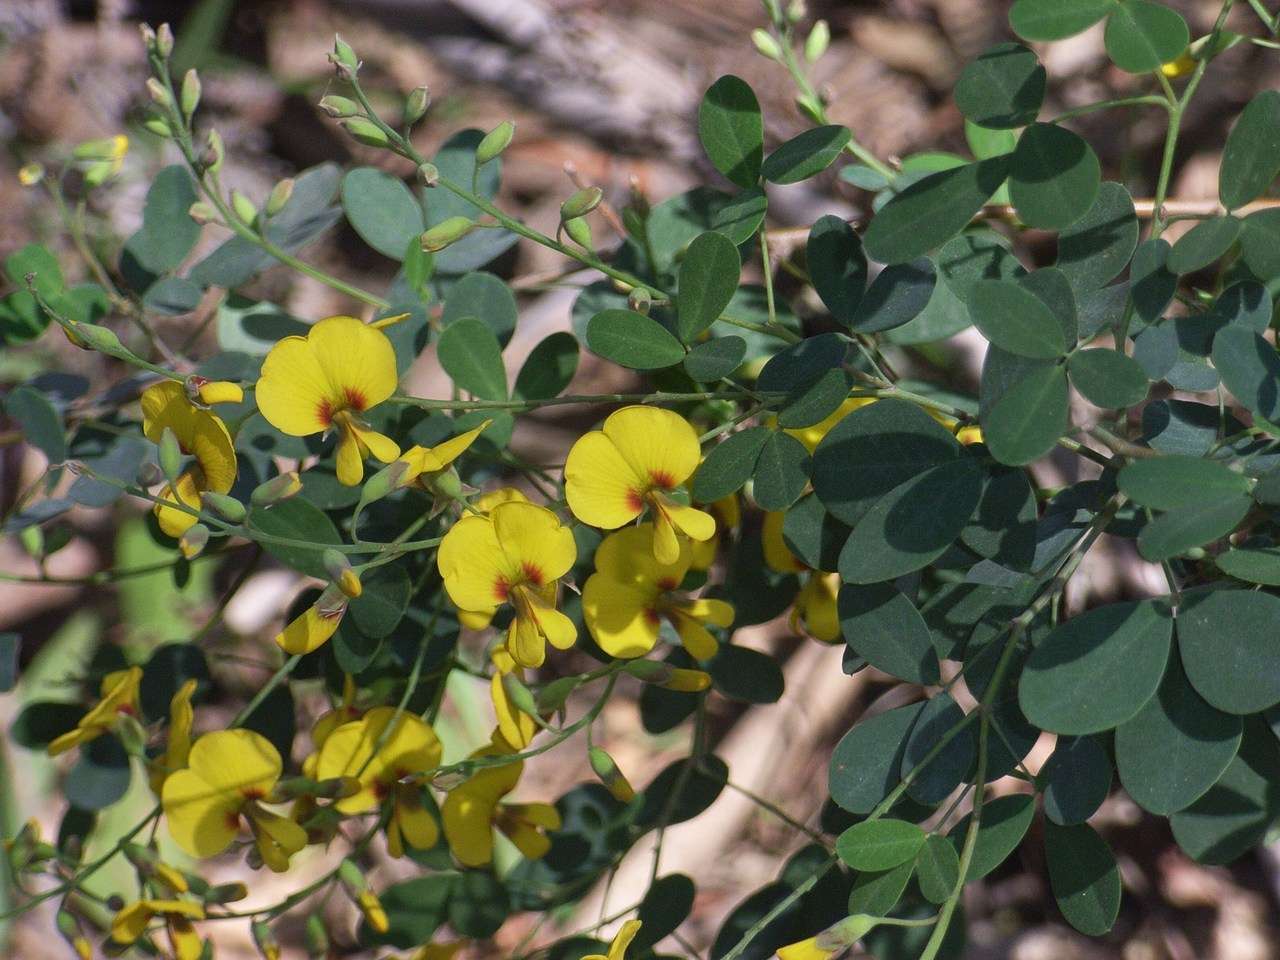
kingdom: Plantae
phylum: Tracheophyta
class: Magnoliopsida
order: Fabales
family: Fabaceae
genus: Goodia
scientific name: Goodia lotifolia
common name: Cloverleaf-poison
